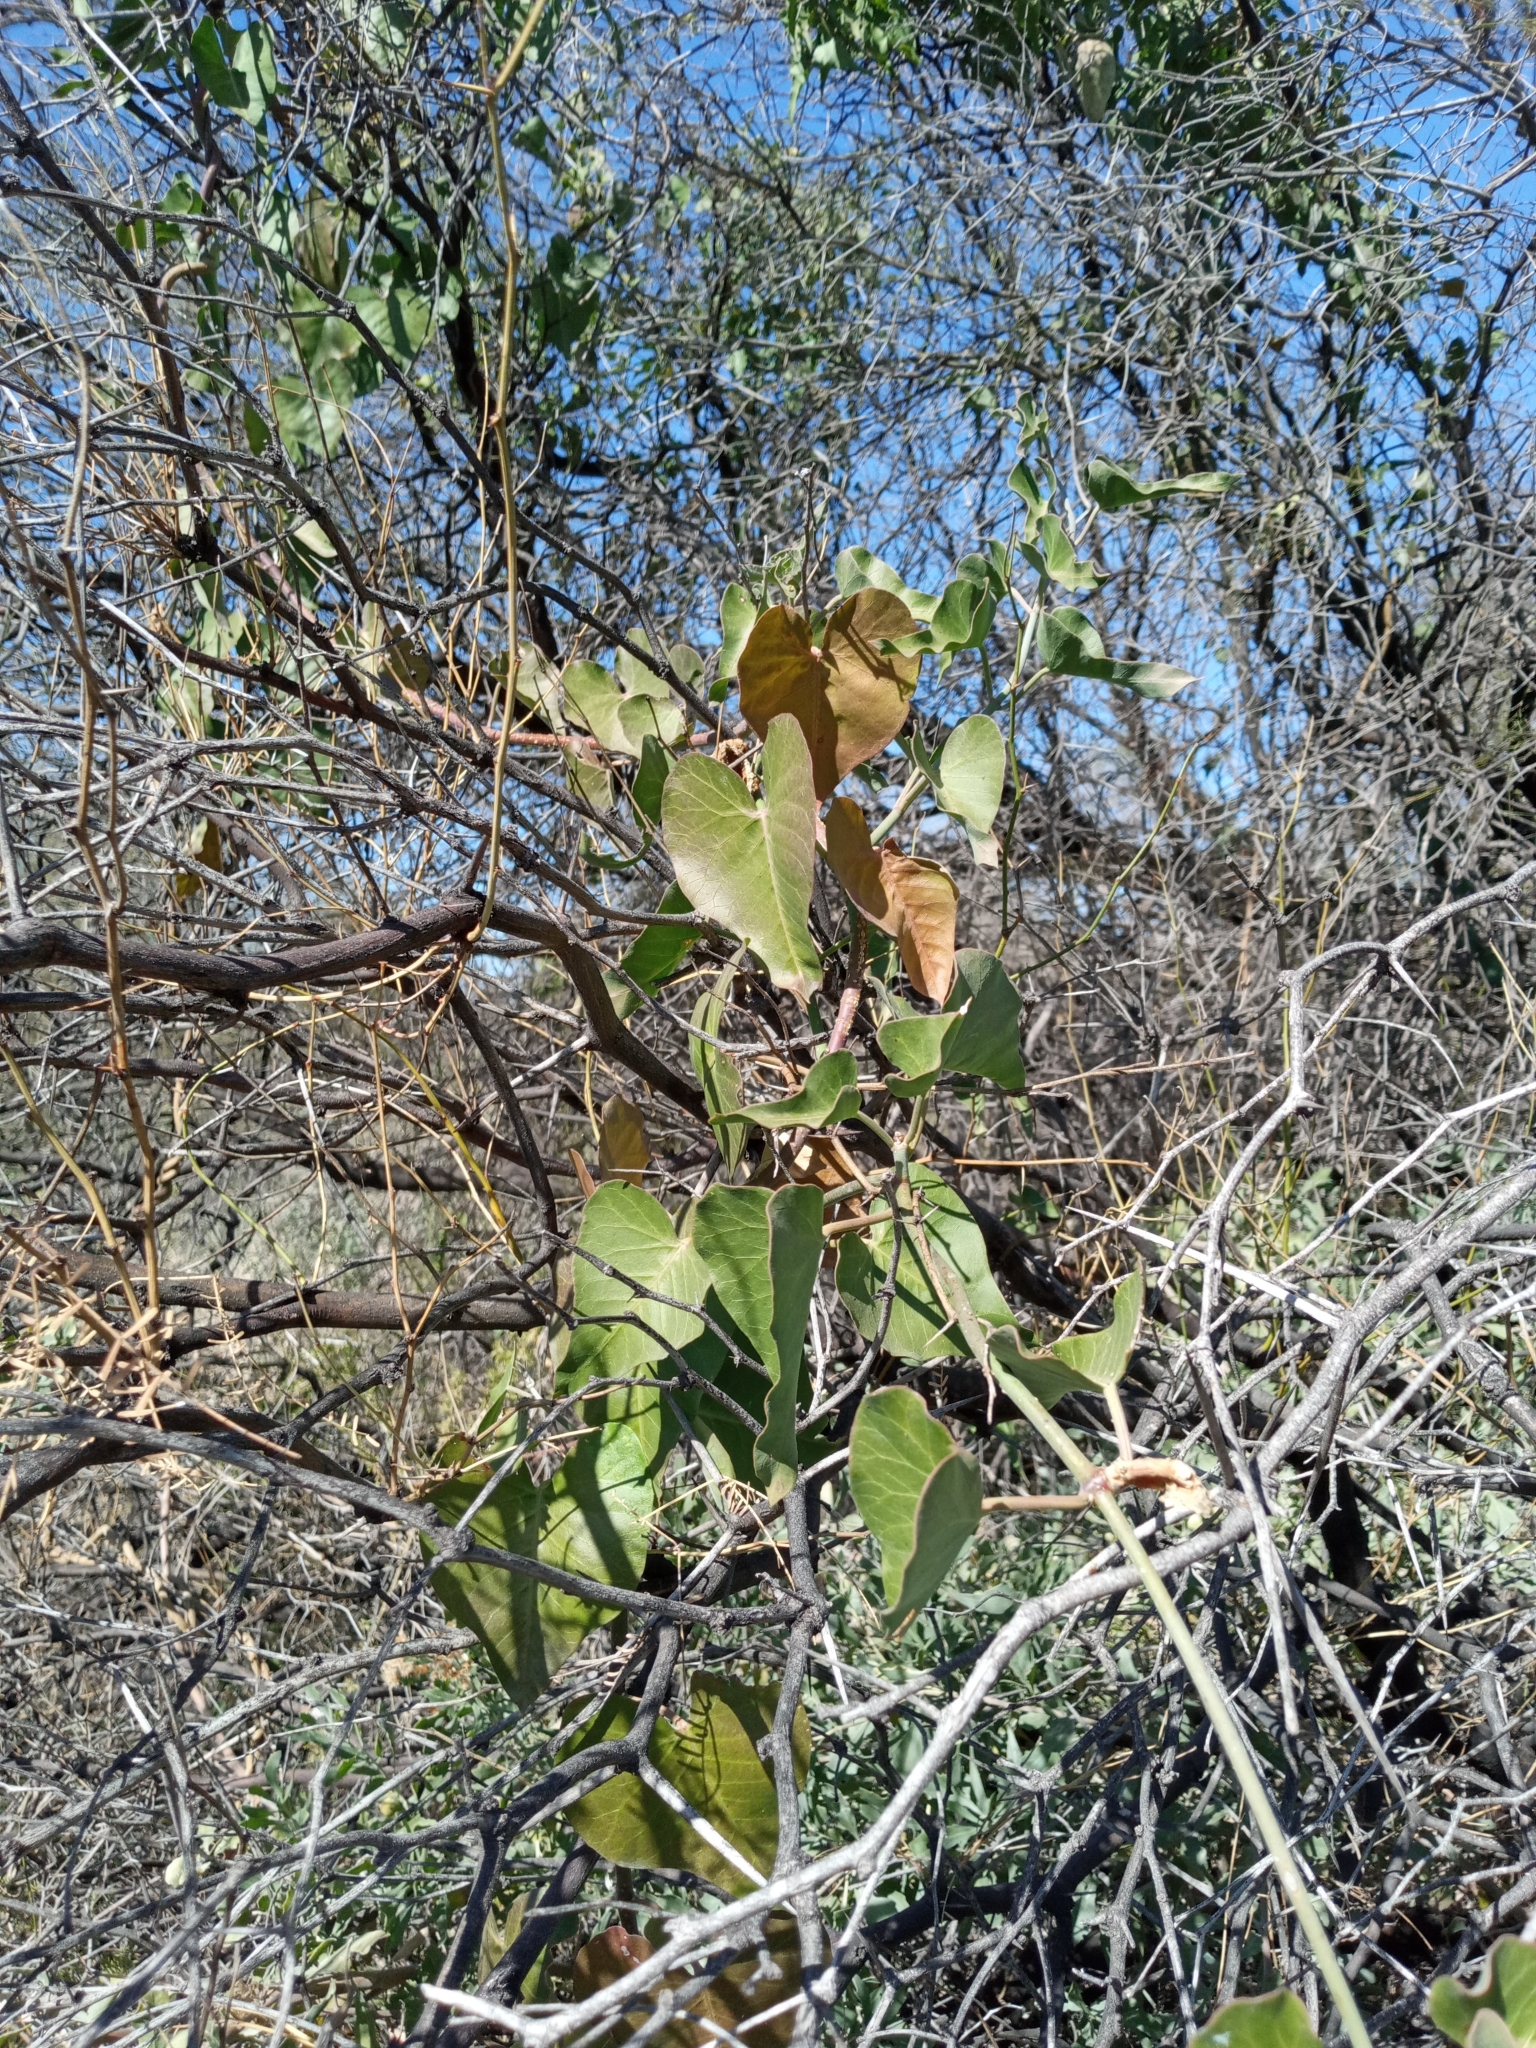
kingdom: Plantae
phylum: Tracheophyta
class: Magnoliopsida
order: Gentianales
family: Apocynaceae
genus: Araujia
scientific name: Araujia odorata
